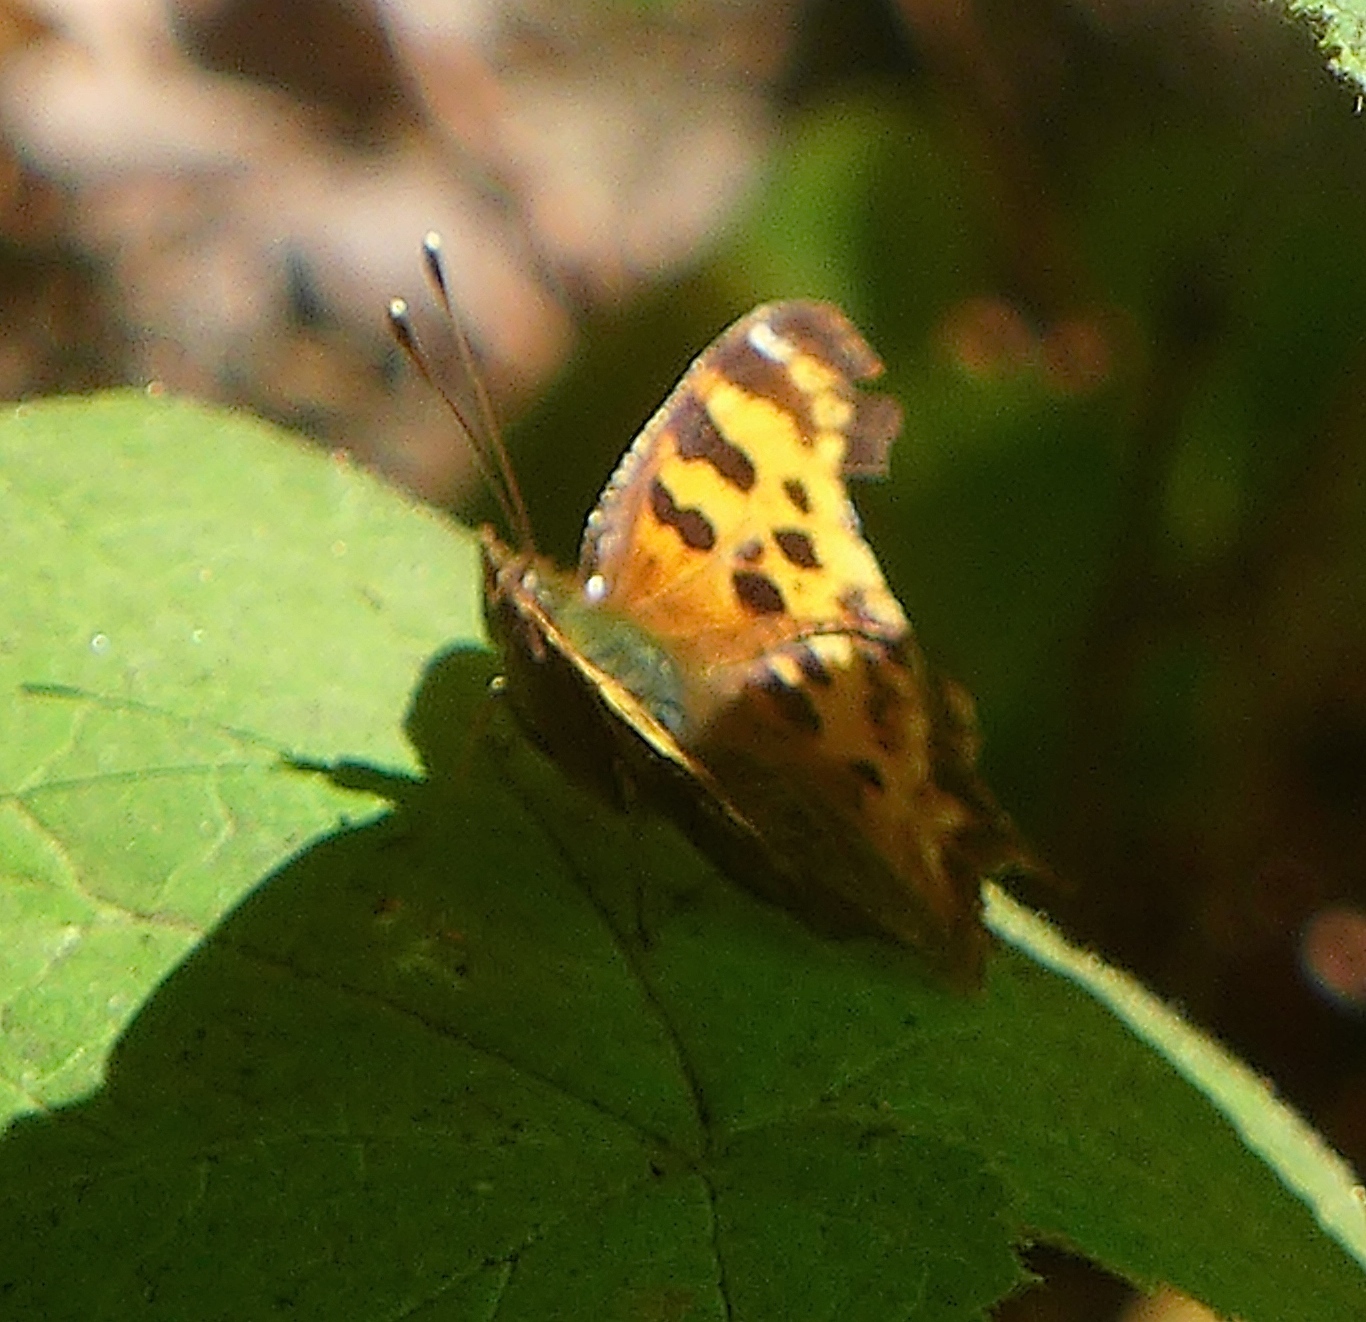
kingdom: Animalia
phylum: Arthropoda
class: Insecta
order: Lepidoptera
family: Nymphalidae
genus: Polygonia
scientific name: Polygonia satyrus
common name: Satyr angle wing
